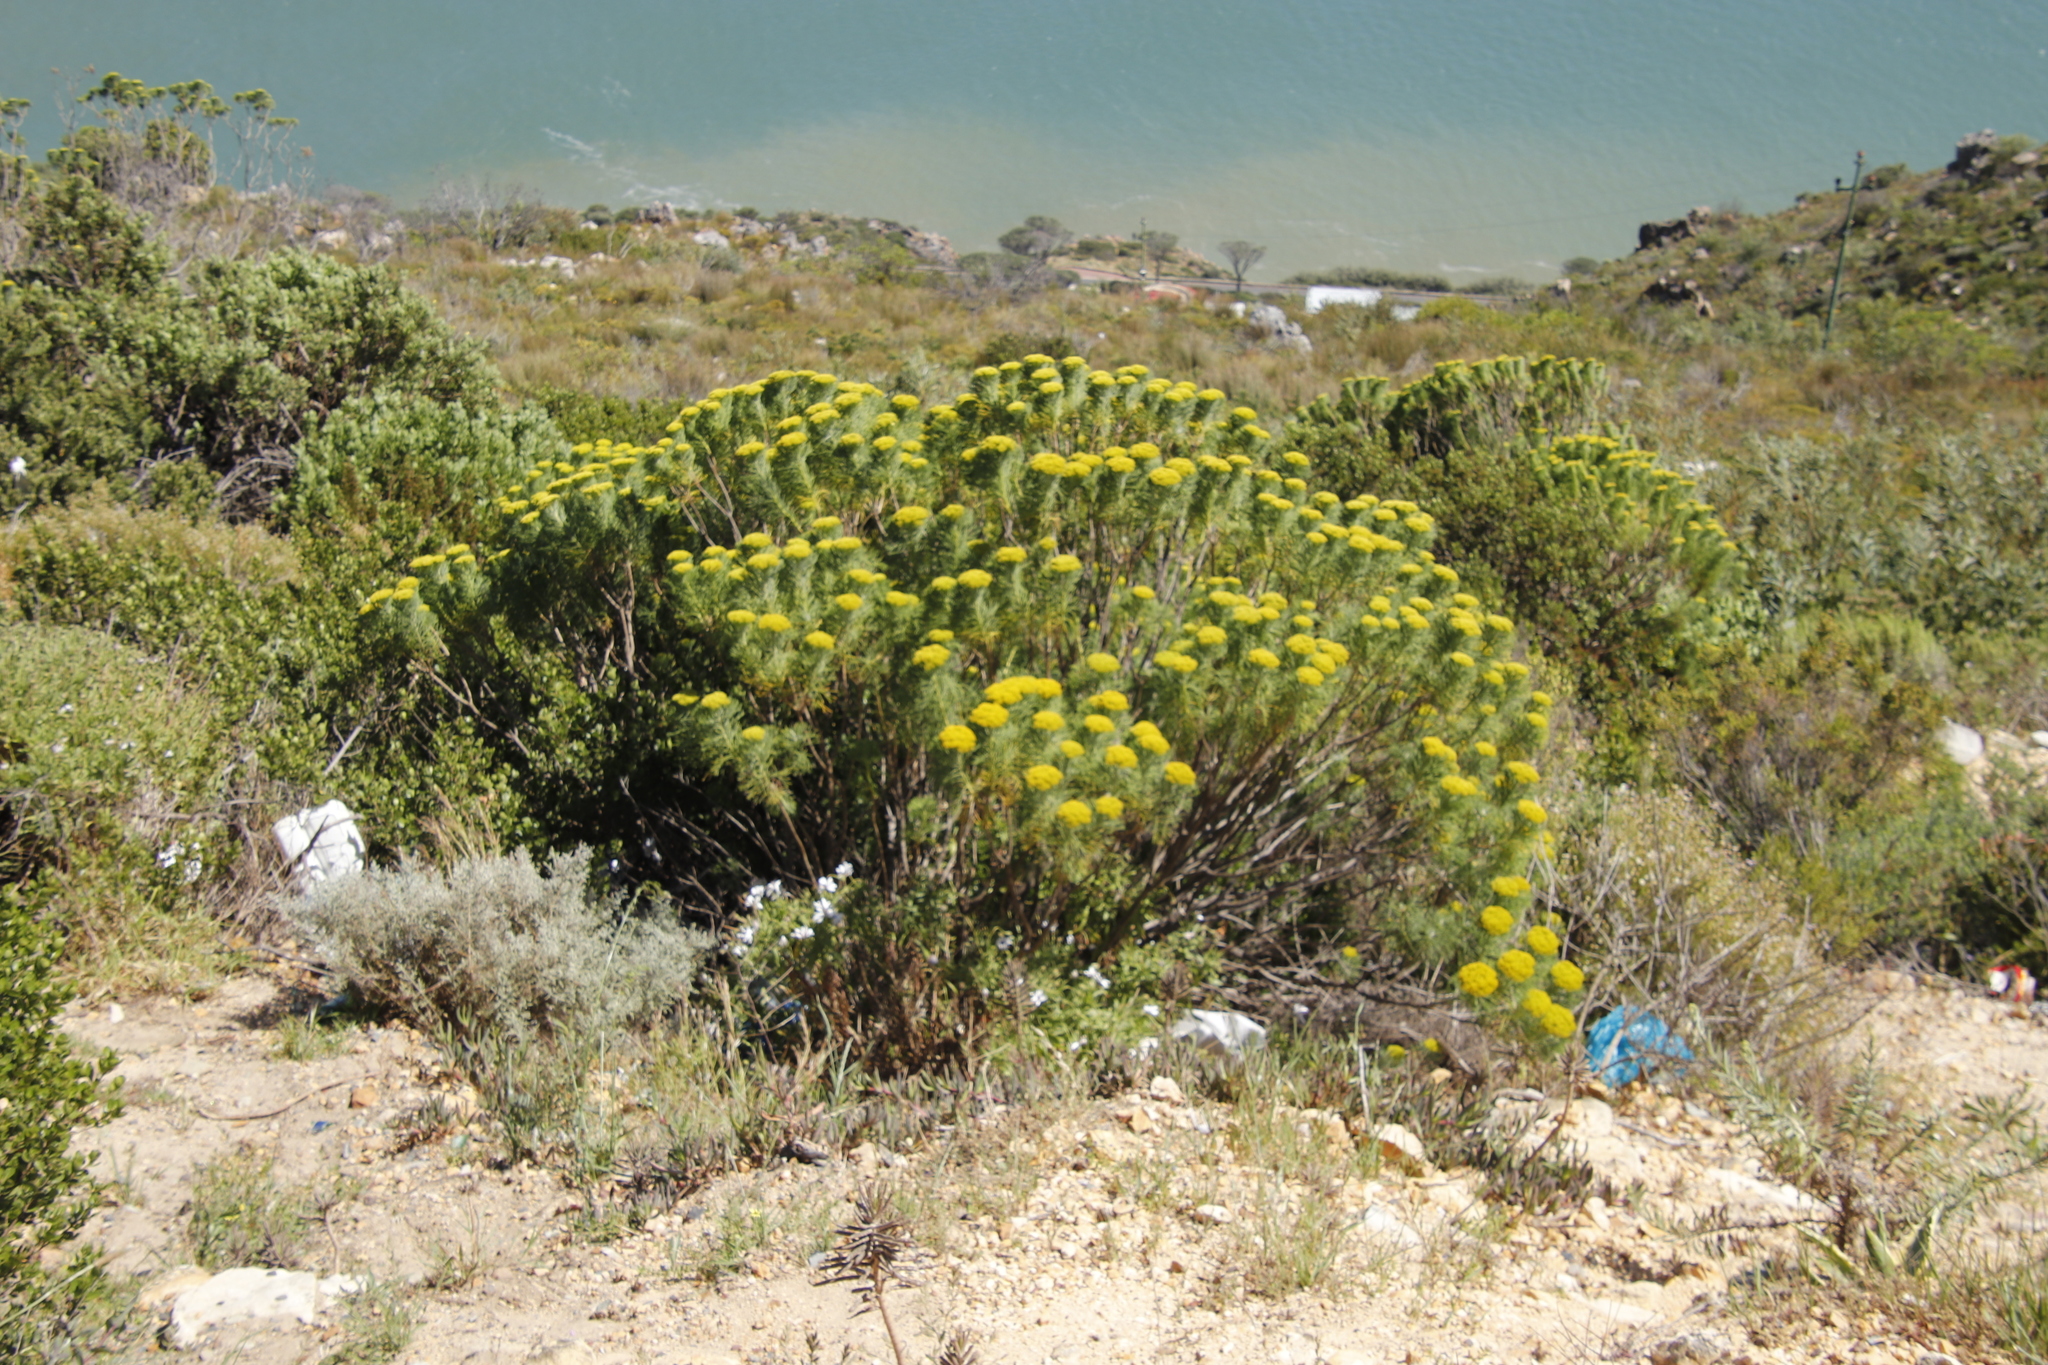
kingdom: Plantae
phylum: Tracheophyta
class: Magnoliopsida
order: Asterales
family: Asteraceae
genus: Hymenolepis
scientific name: Hymenolepis crithmifolia
